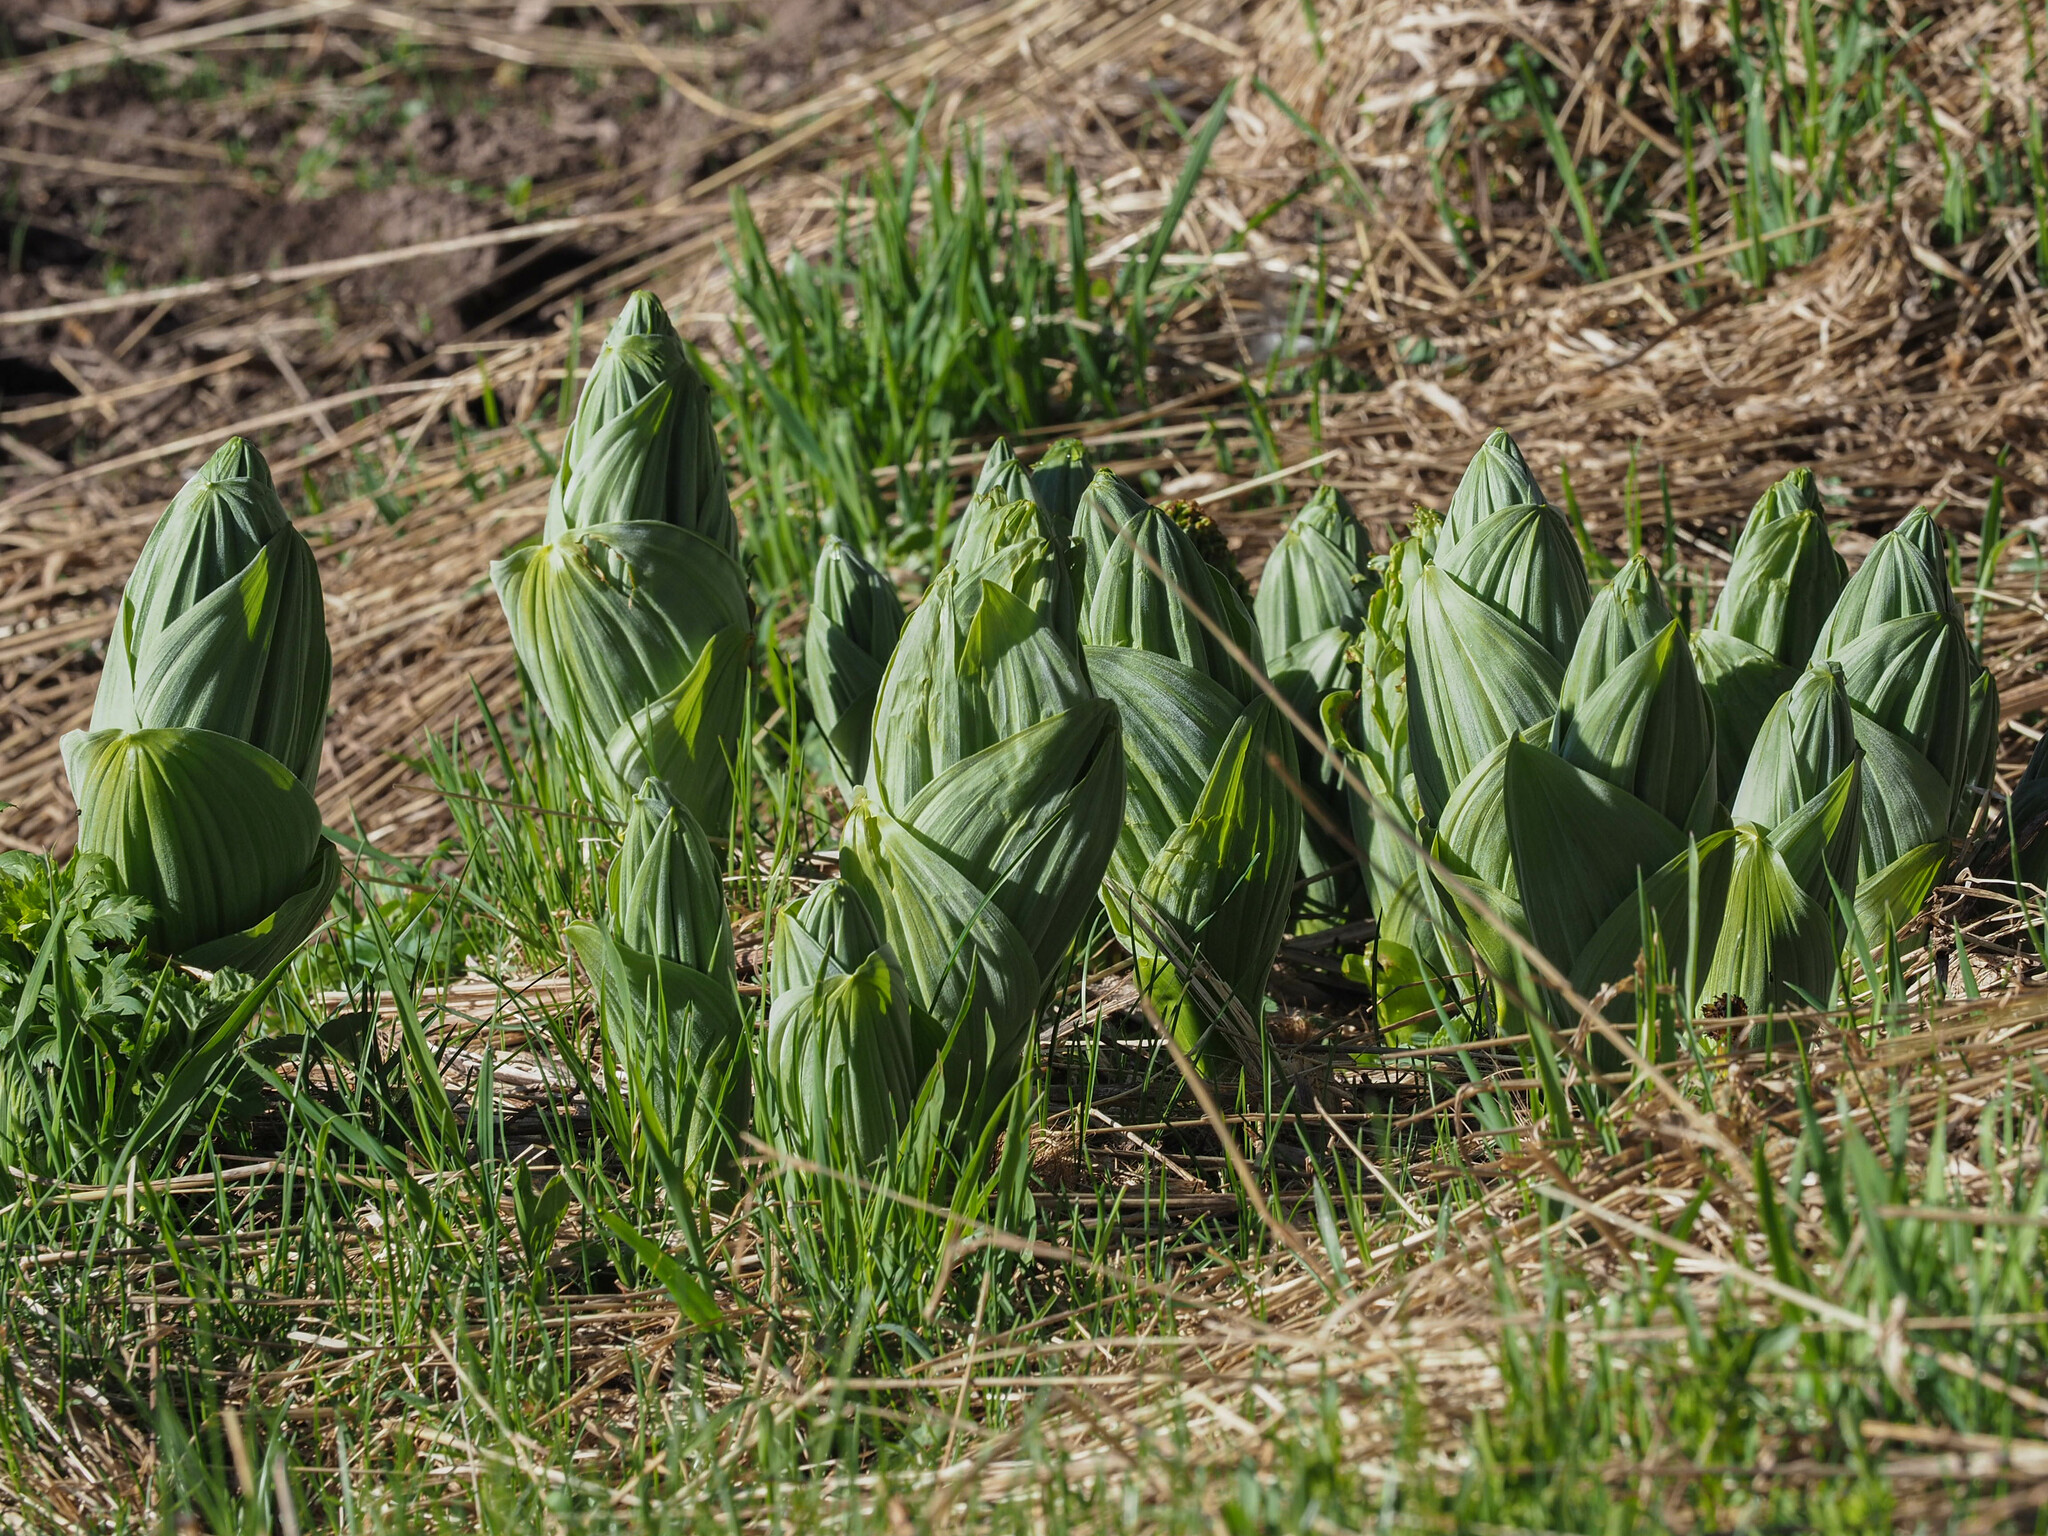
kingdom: Plantae
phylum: Tracheophyta
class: Liliopsida
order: Liliales
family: Melanthiaceae
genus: Veratrum
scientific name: Veratrum californicum
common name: California veratrum
